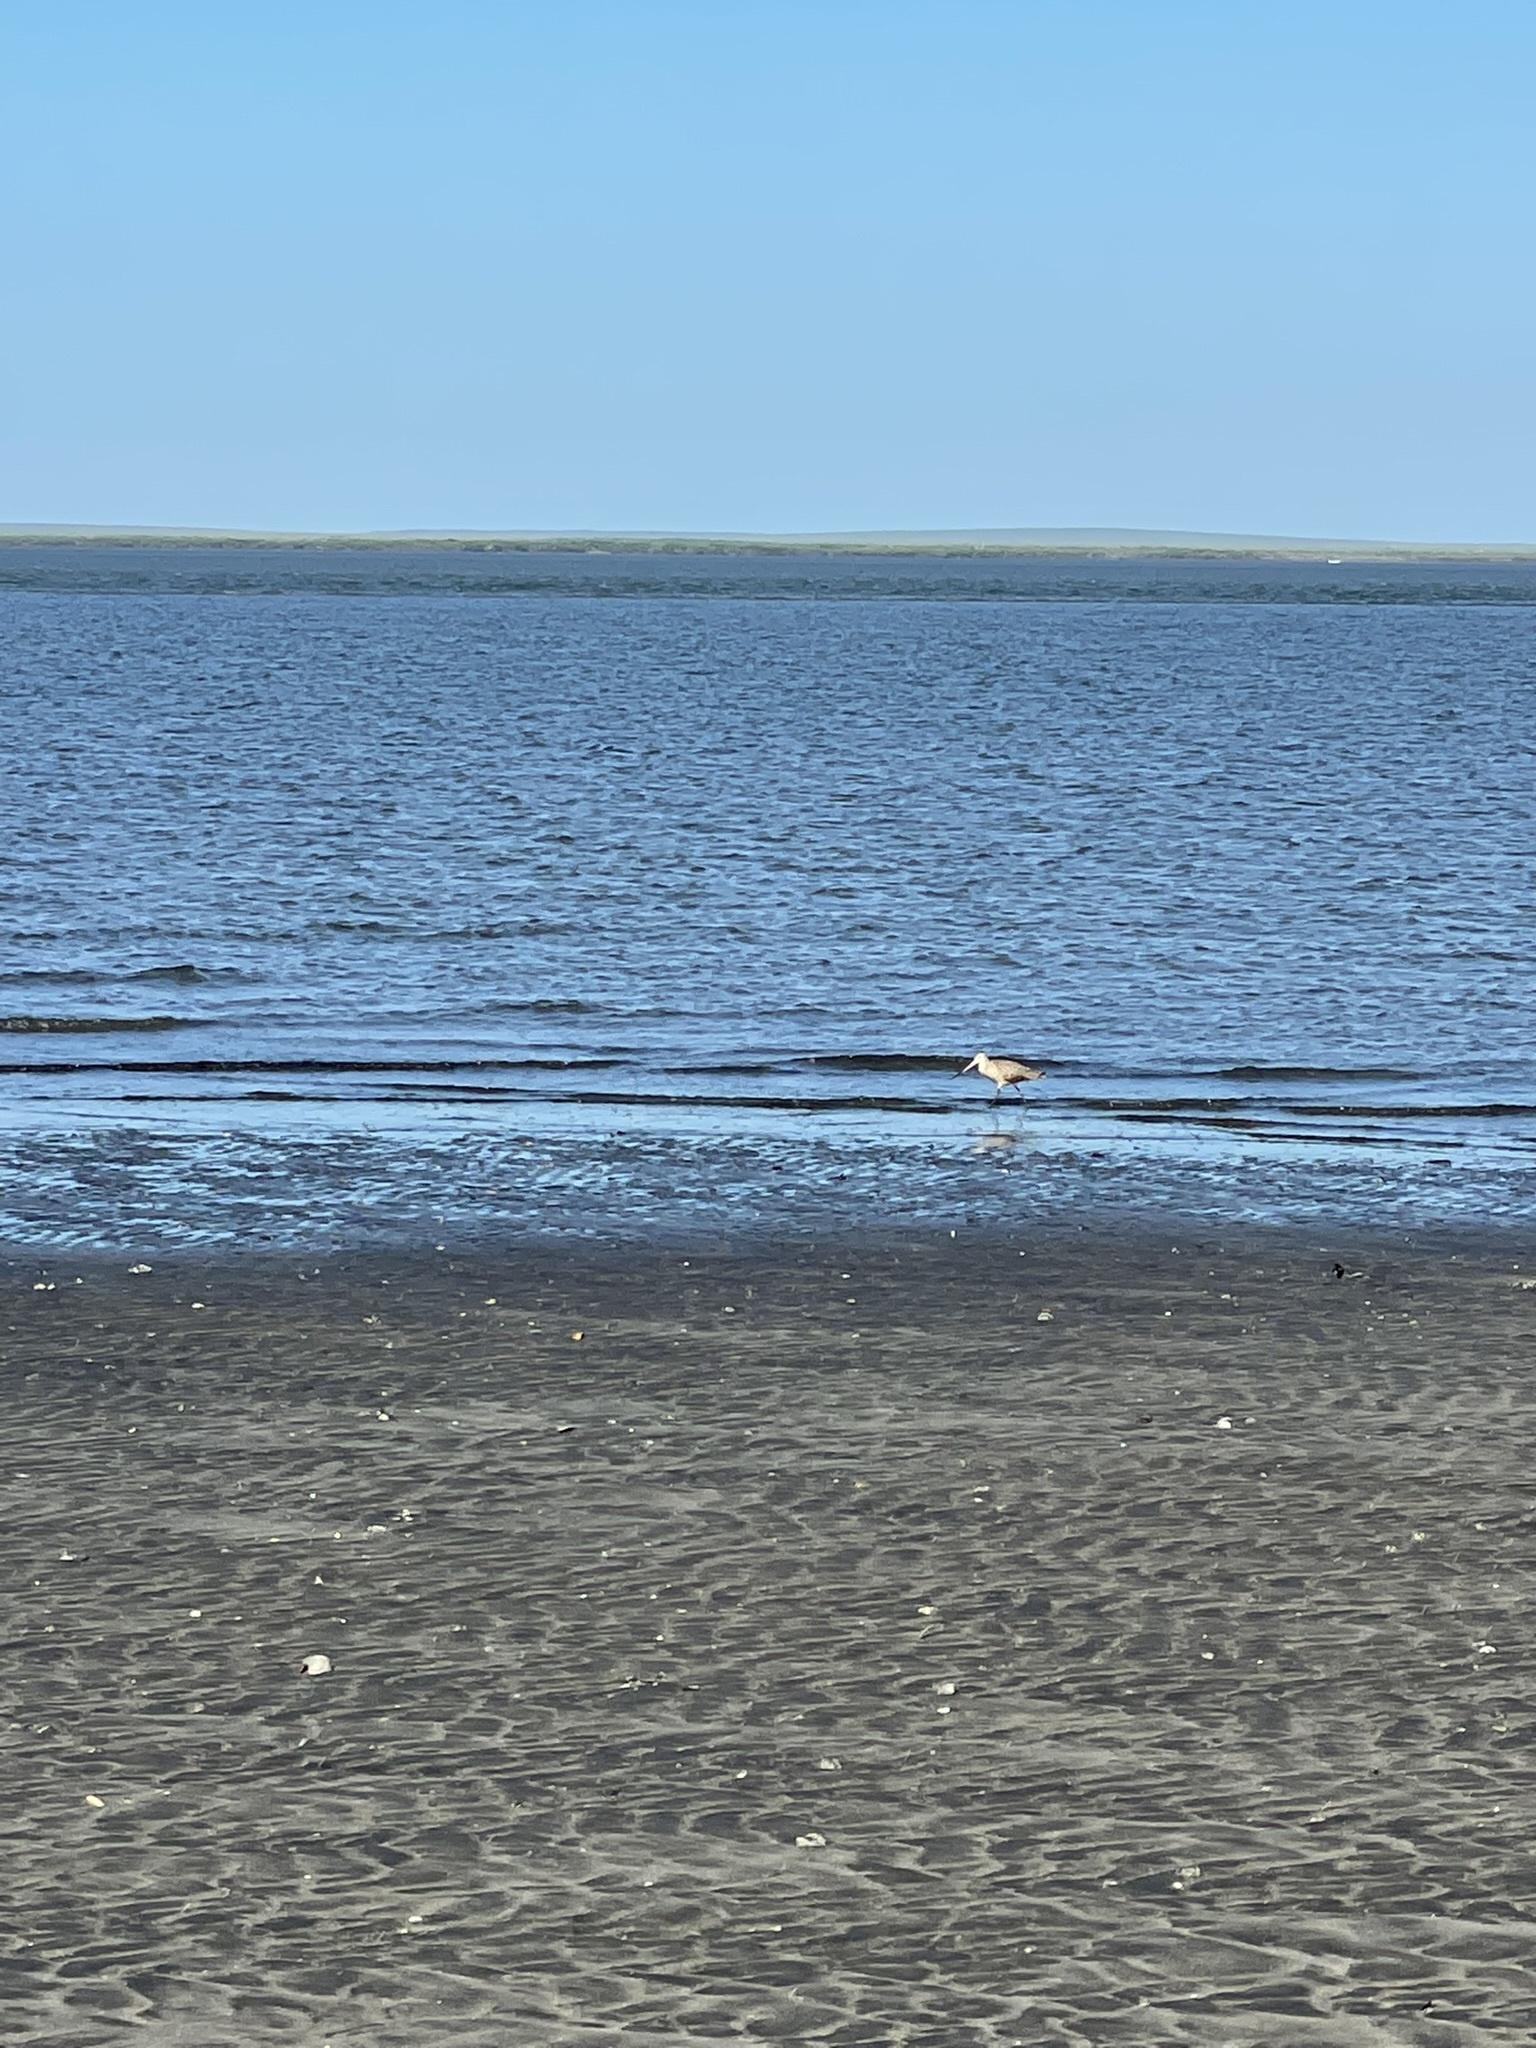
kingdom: Animalia
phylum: Chordata
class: Aves
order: Charadriiformes
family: Scolopacidae
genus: Limosa
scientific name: Limosa fedoa
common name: Marbled godwit
